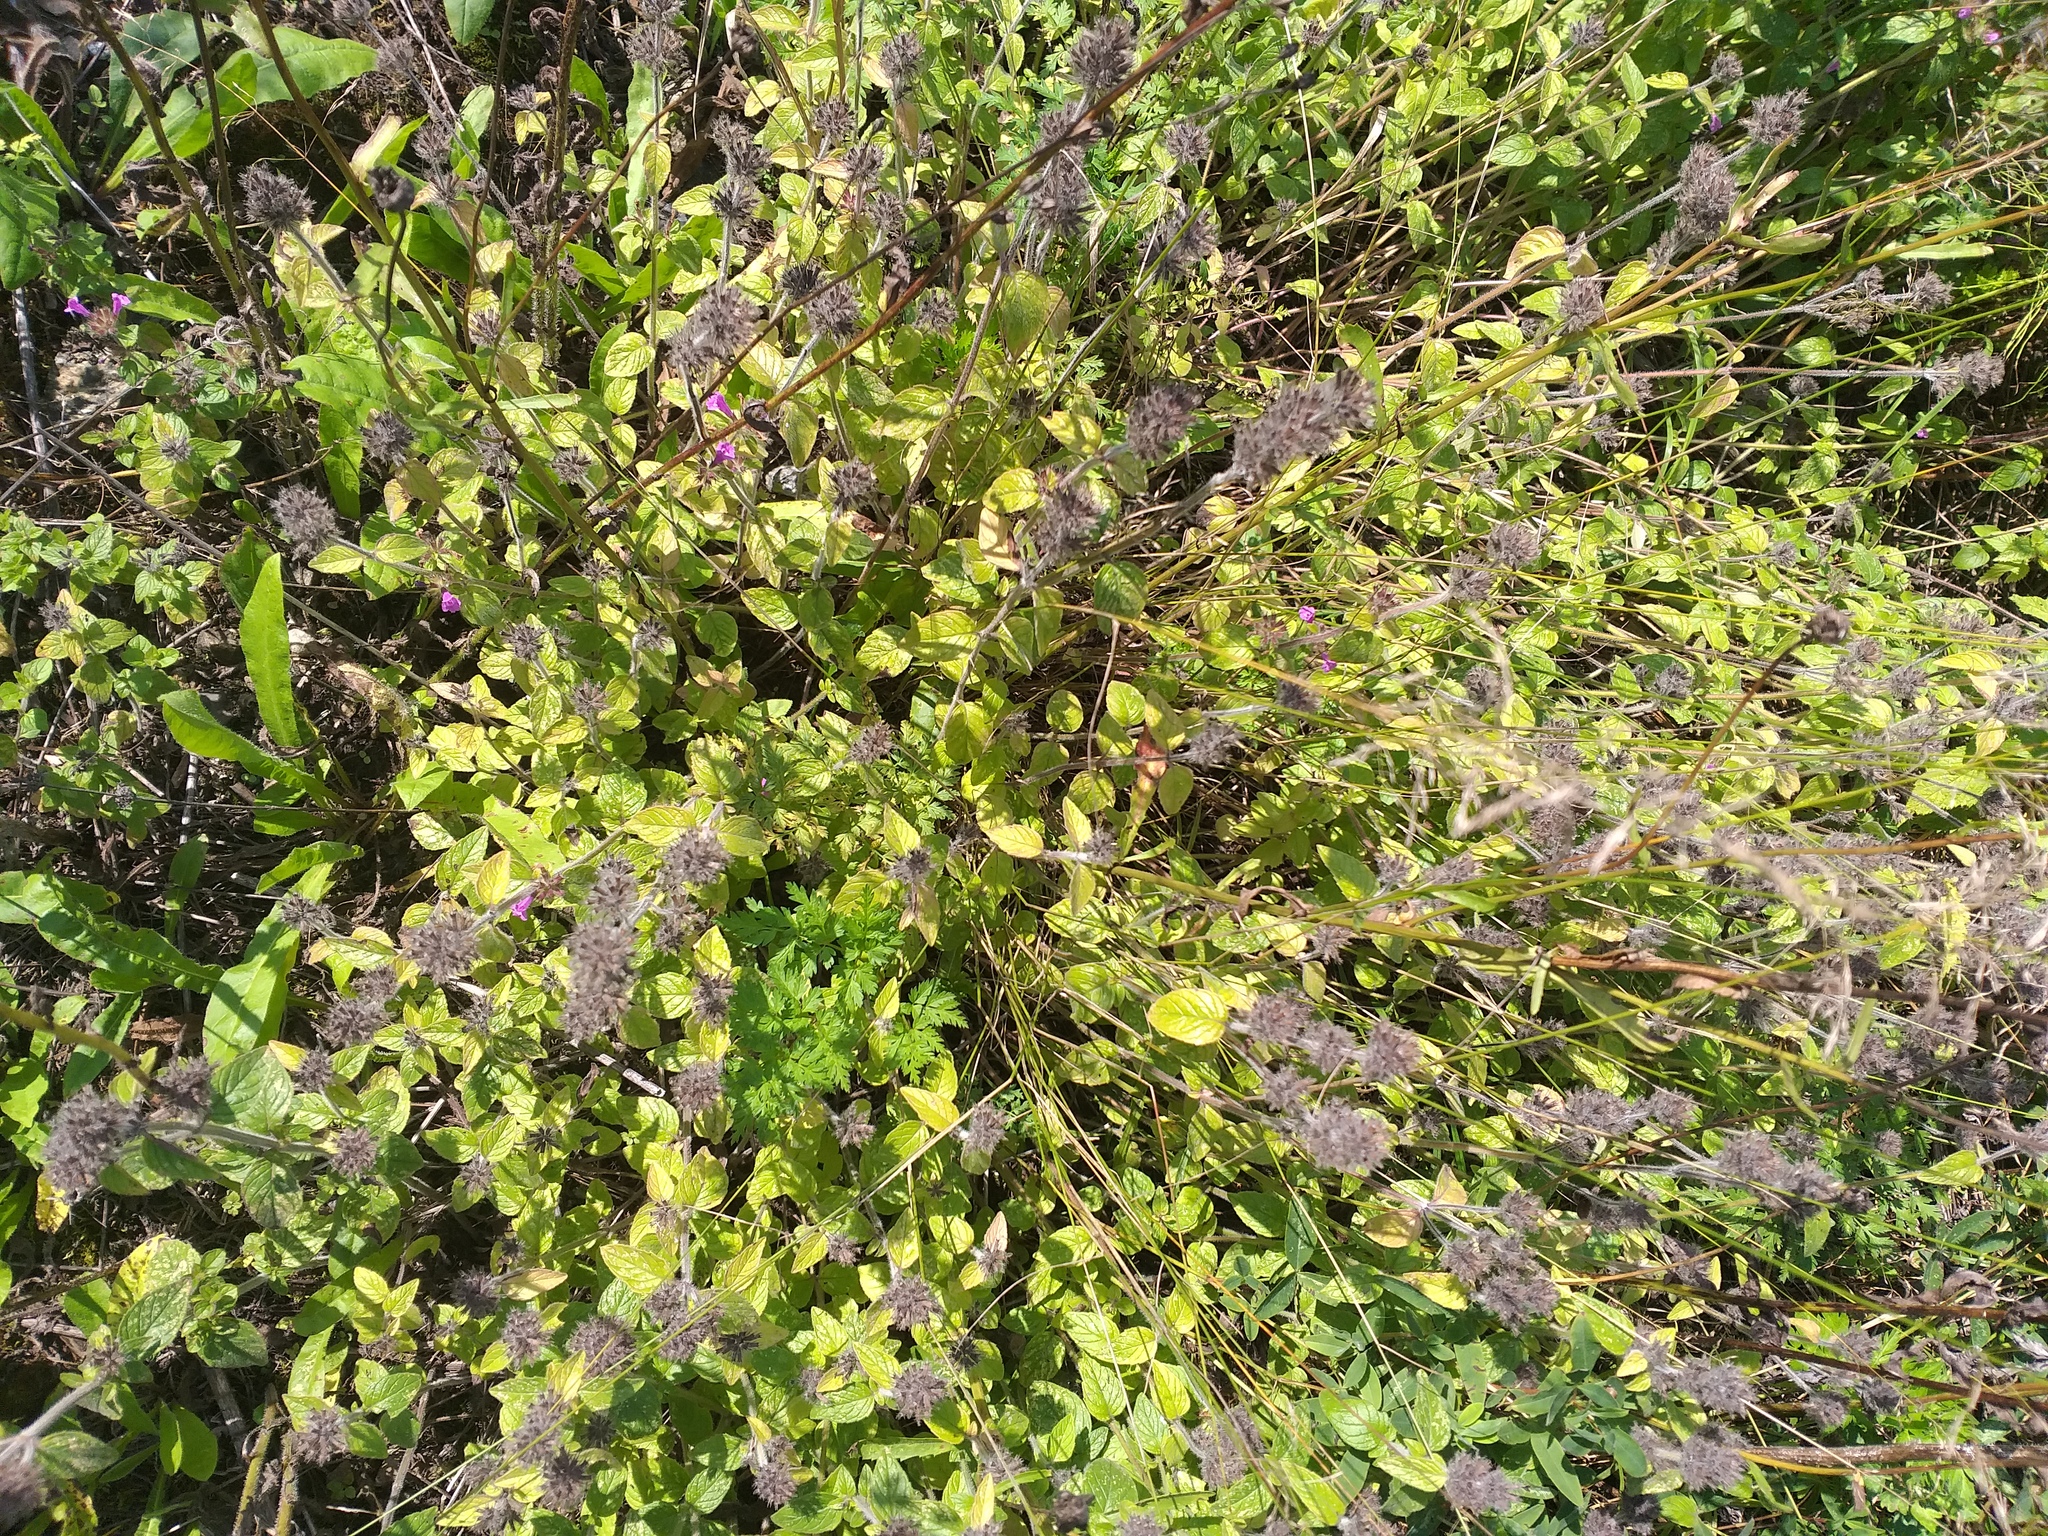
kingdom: Plantae
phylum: Tracheophyta
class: Magnoliopsida
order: Lamiales
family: Lamiaceae
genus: Clinopodium
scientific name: Clinopodium vulgare
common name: Wild basil
